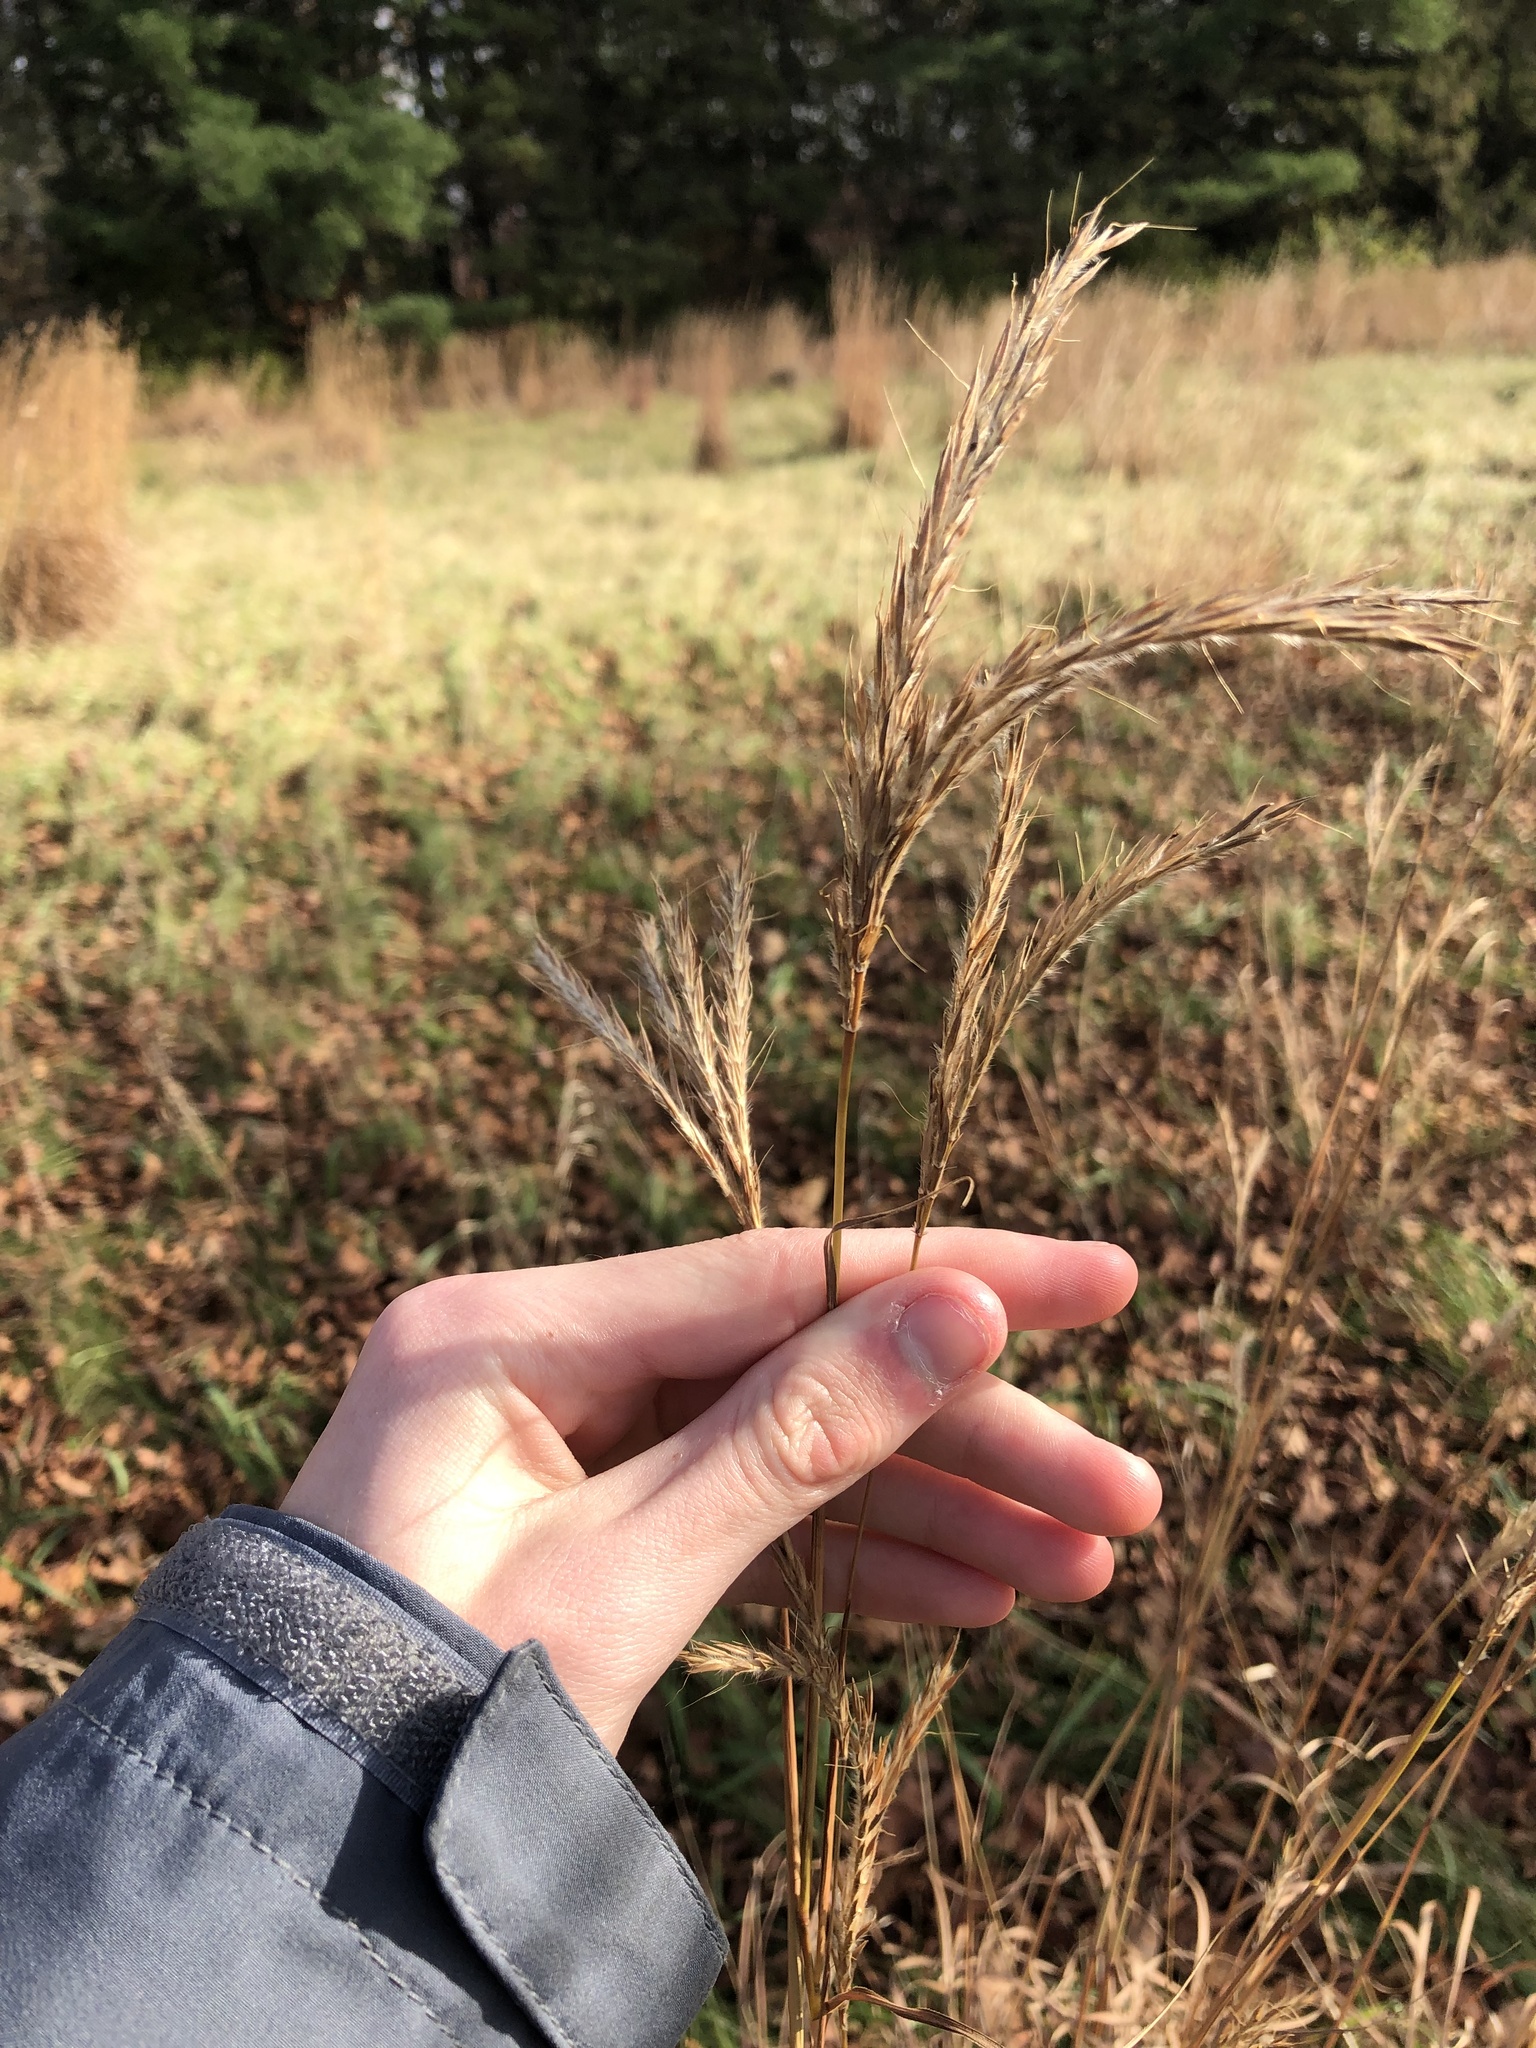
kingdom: Plantae
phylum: Tracheophyta
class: Liliopsida
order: Poales
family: Poaceae
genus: Andropogon
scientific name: Andropogon gerardi
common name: Big bluestem
